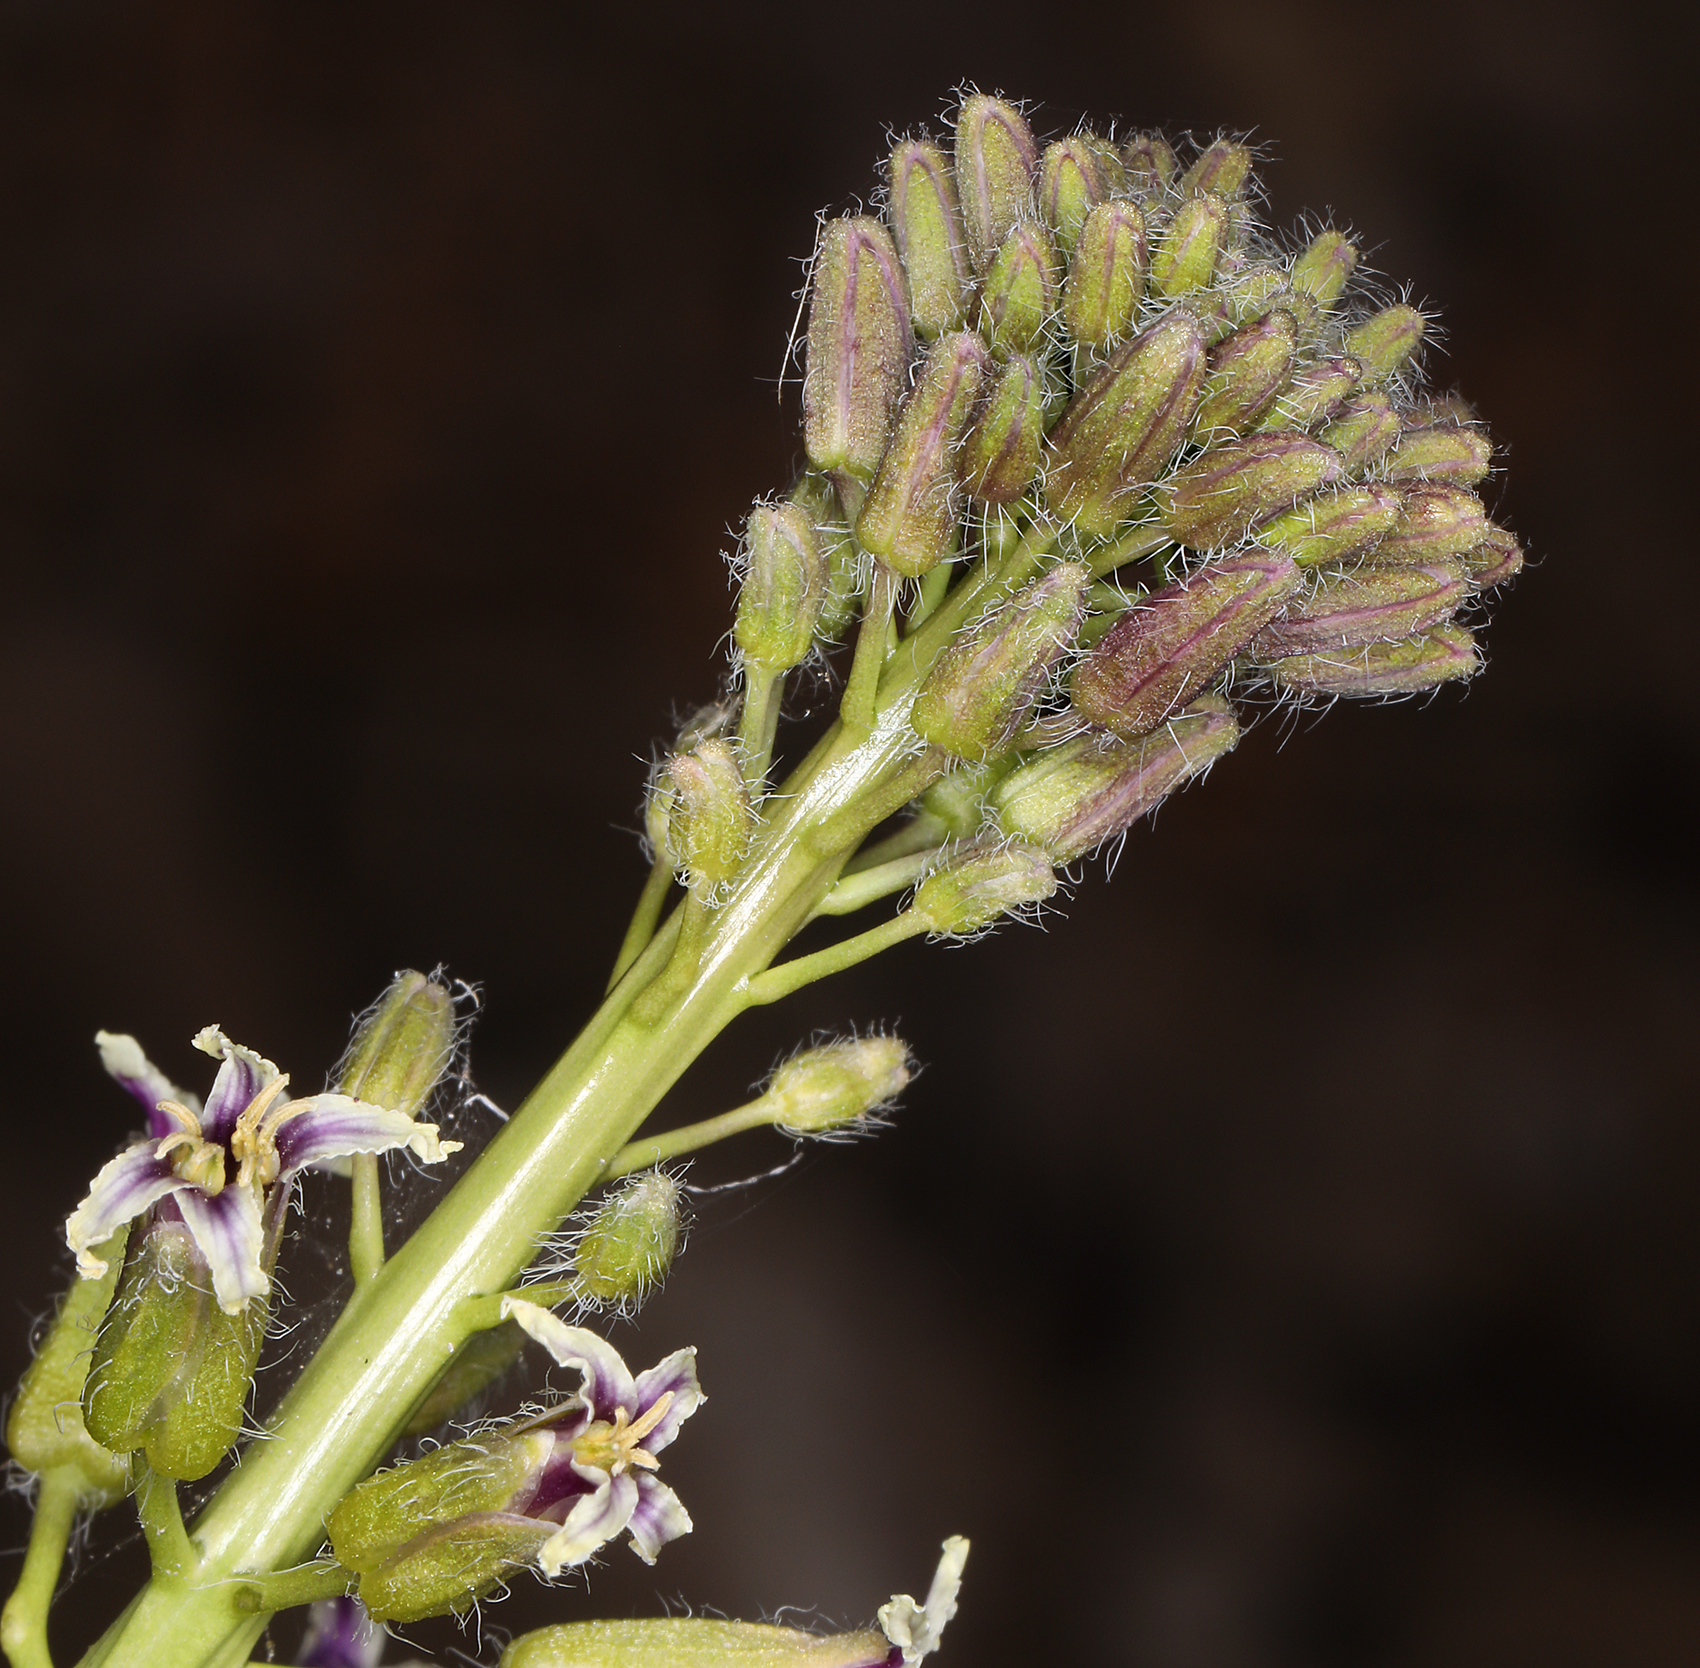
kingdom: Plantae
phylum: Tracheophyta
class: Magnoliopsida
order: Brassicales
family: Brassicaceae
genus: Streptanthus
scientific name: Streptanthus pilosus
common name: Chocolate drops
